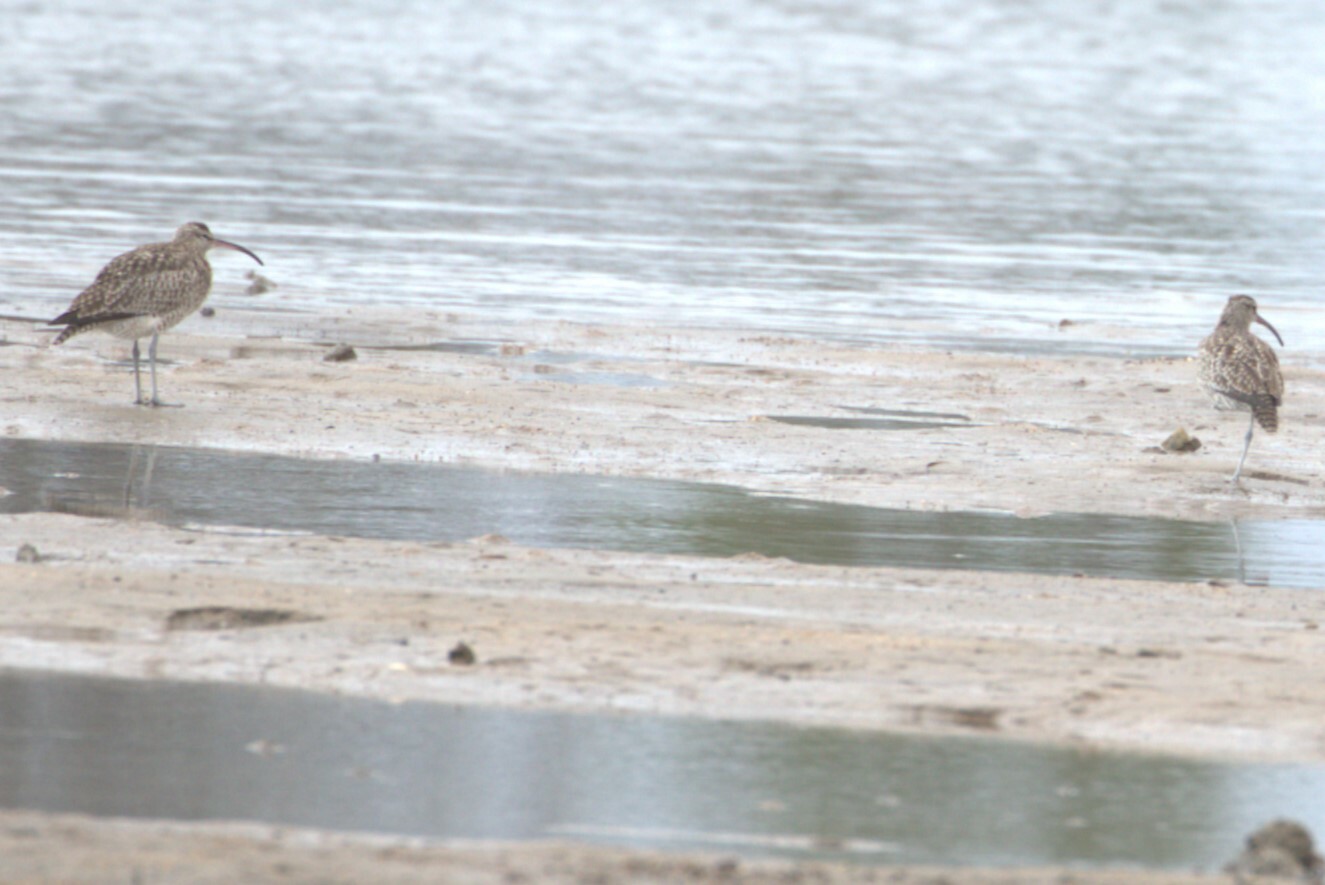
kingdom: Animalia
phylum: Chordata
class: Aves
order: Charadriiformes
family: Scolopacidae
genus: Numenius
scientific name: Numenius phaeopus
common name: Whimbrel
